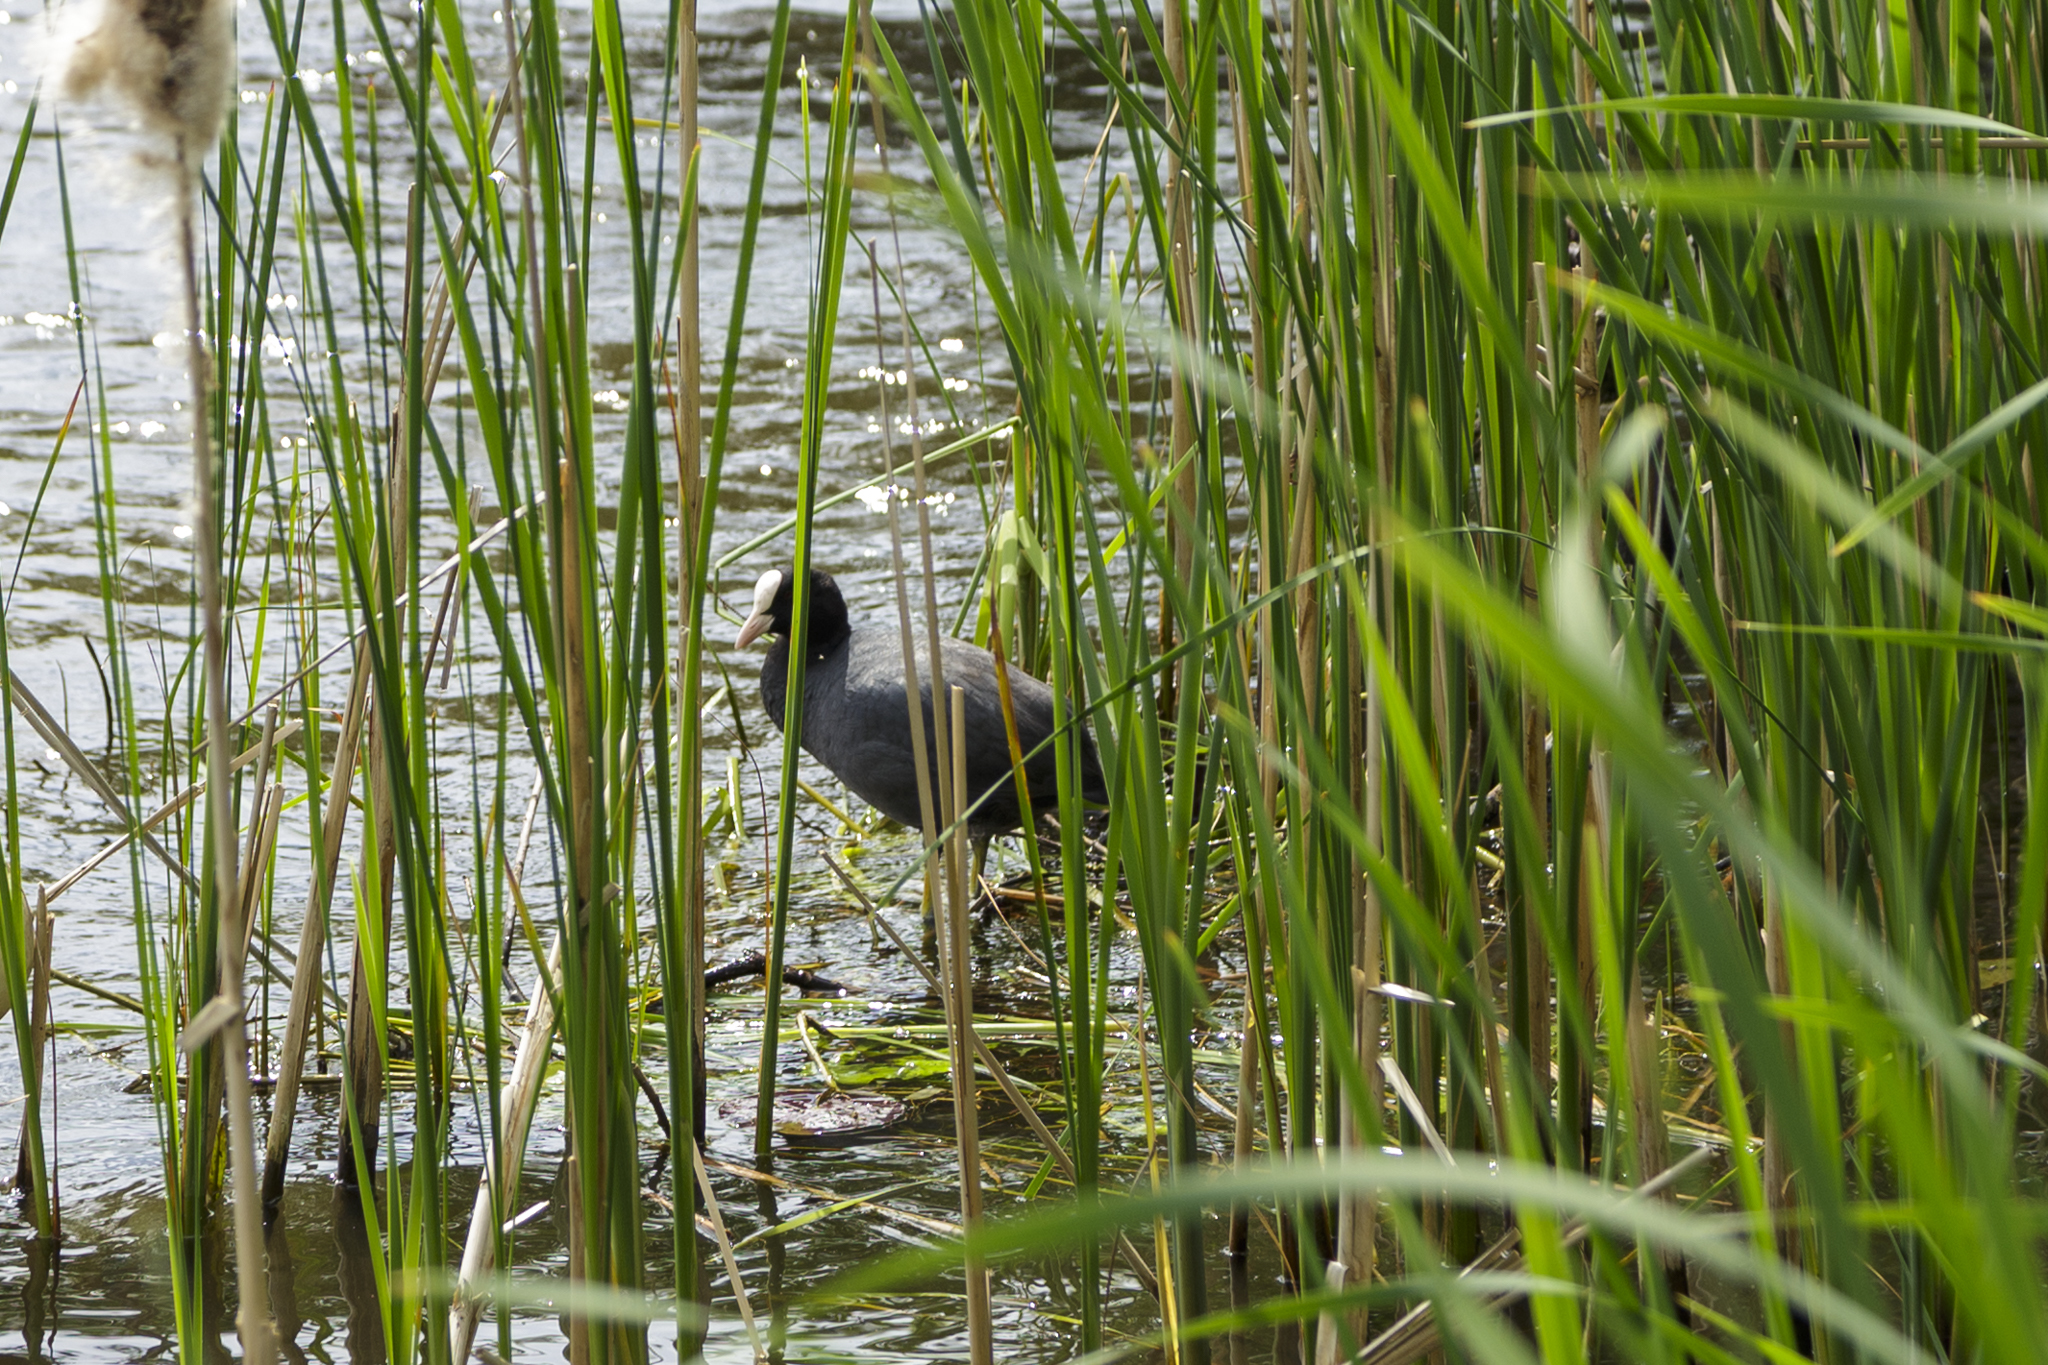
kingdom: Animalia
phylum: Chordata
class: Aves
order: Gruiformes
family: Rallidae
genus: Fulica
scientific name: Fulica atra
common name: Eurasian coot
